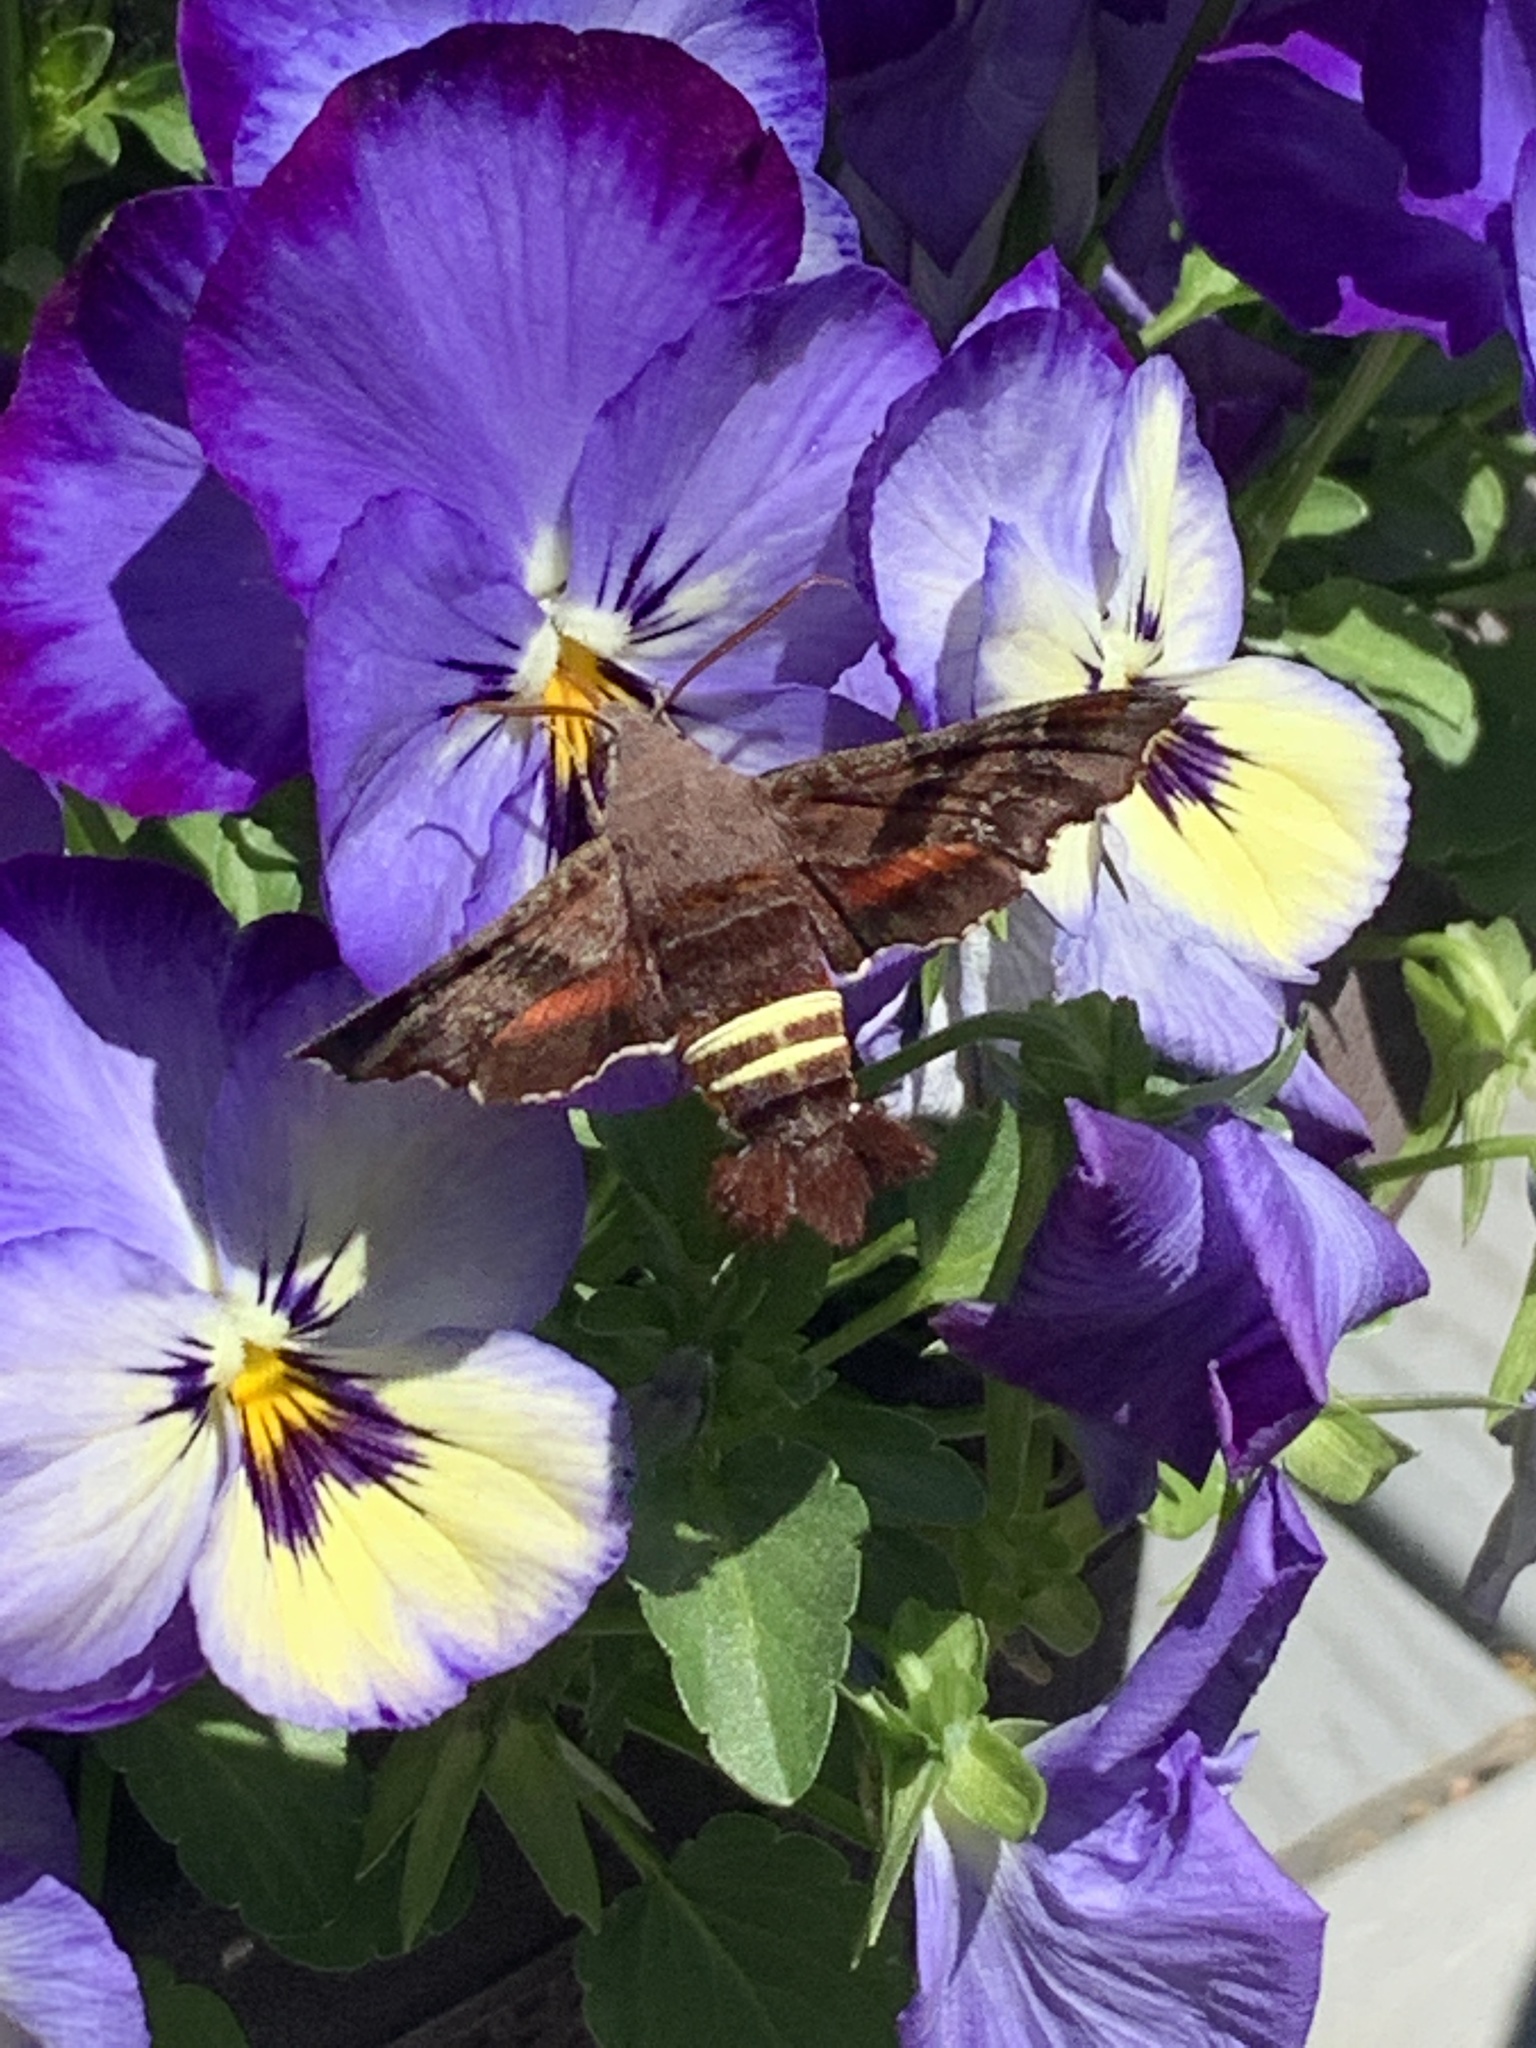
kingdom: Animalia
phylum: Arthropoda
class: Insecta
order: Lepidoptera
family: Sphingidae
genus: Amphion
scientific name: Amphion floridensis
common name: Nessus sphinx
